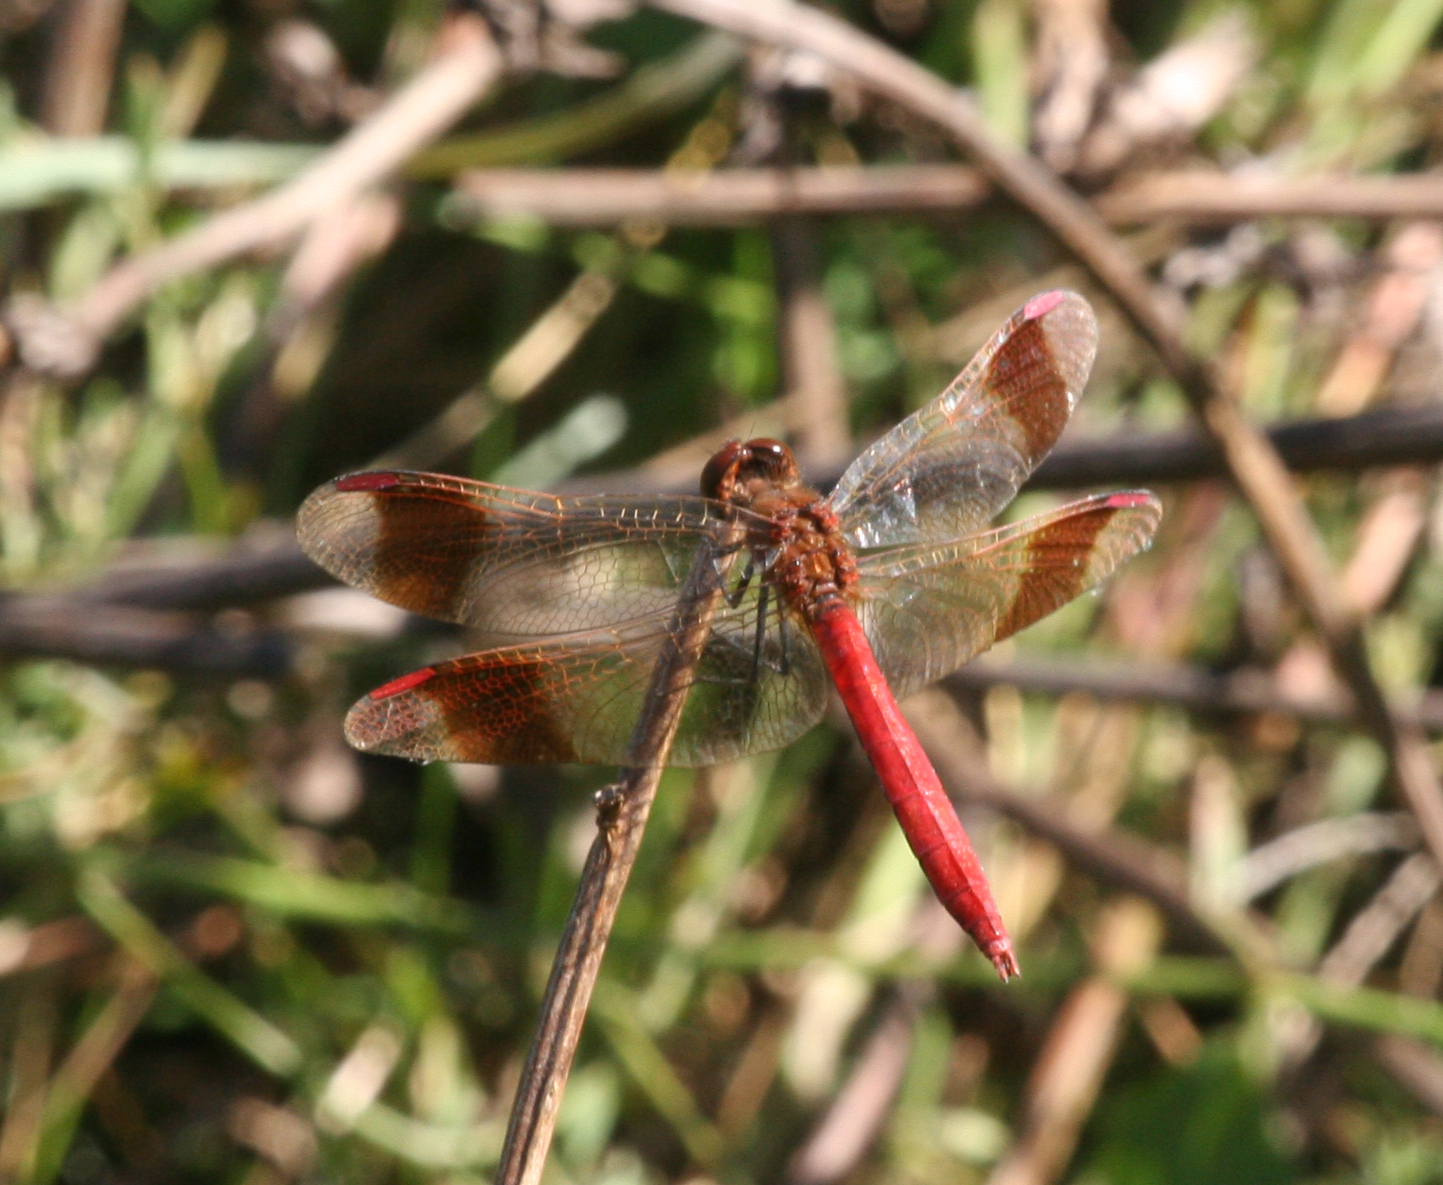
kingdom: Animalia
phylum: Arthropoda
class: Insecta
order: Odonata
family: Libellulidae
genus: Sympetrum
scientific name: Sympetrum pedemontanum
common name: Banded darter
